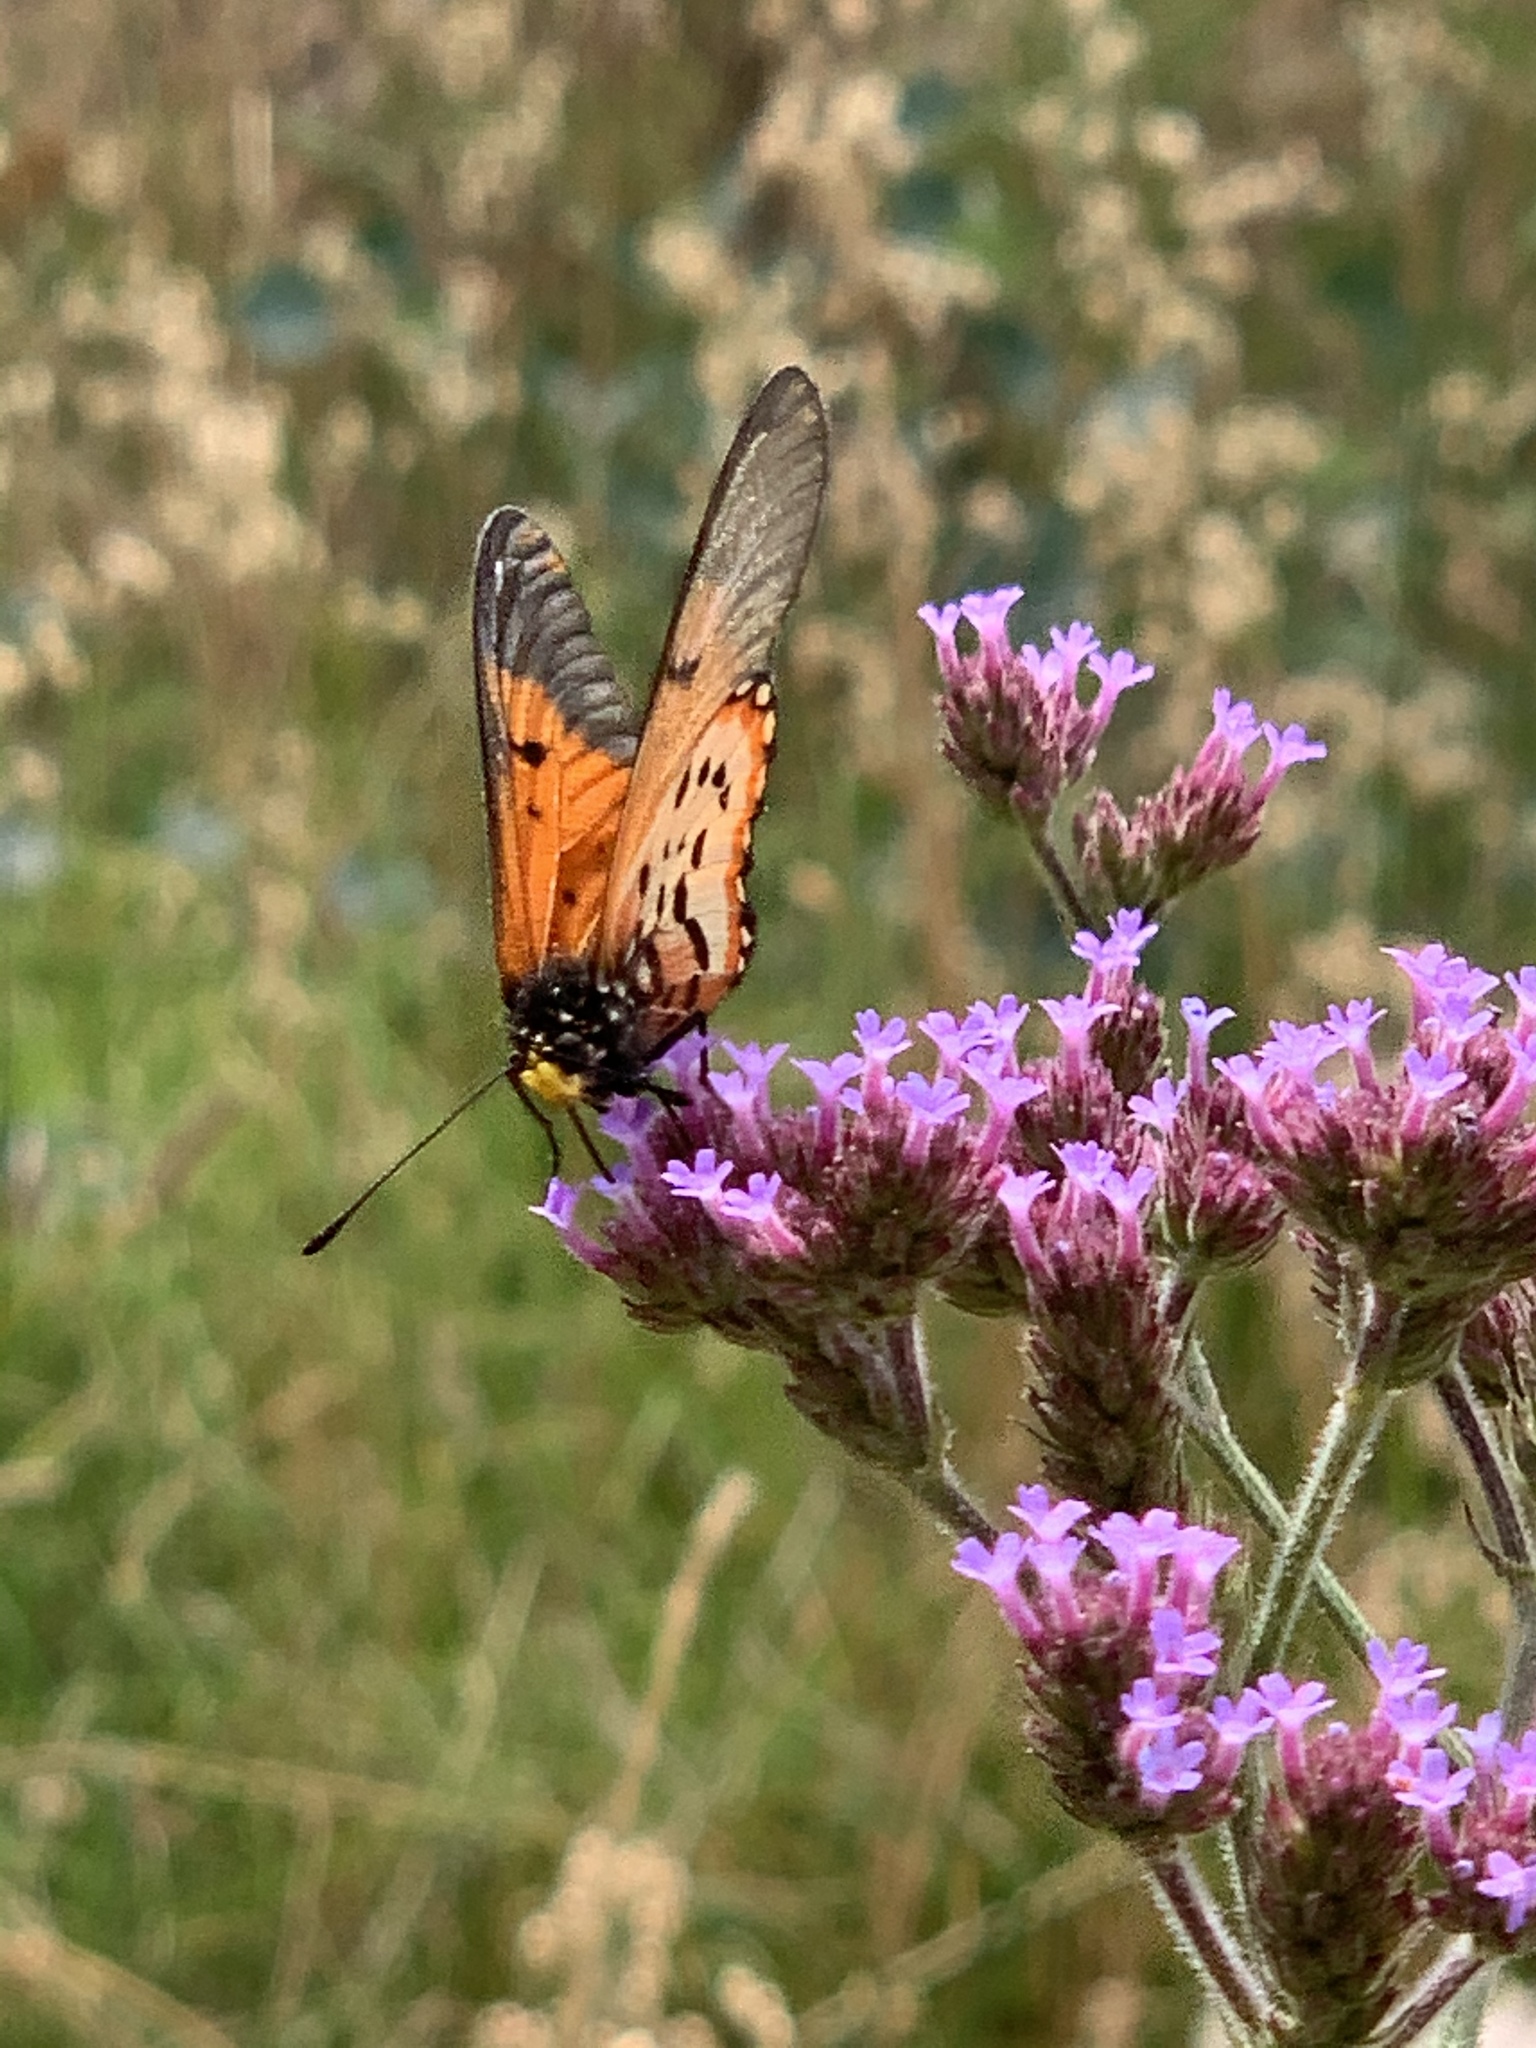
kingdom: Animalia
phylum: Arthropoda
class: Insecta
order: Lepidoptera
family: Nymphalidae
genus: Acraea
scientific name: Acraea horta
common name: Garden acraea
